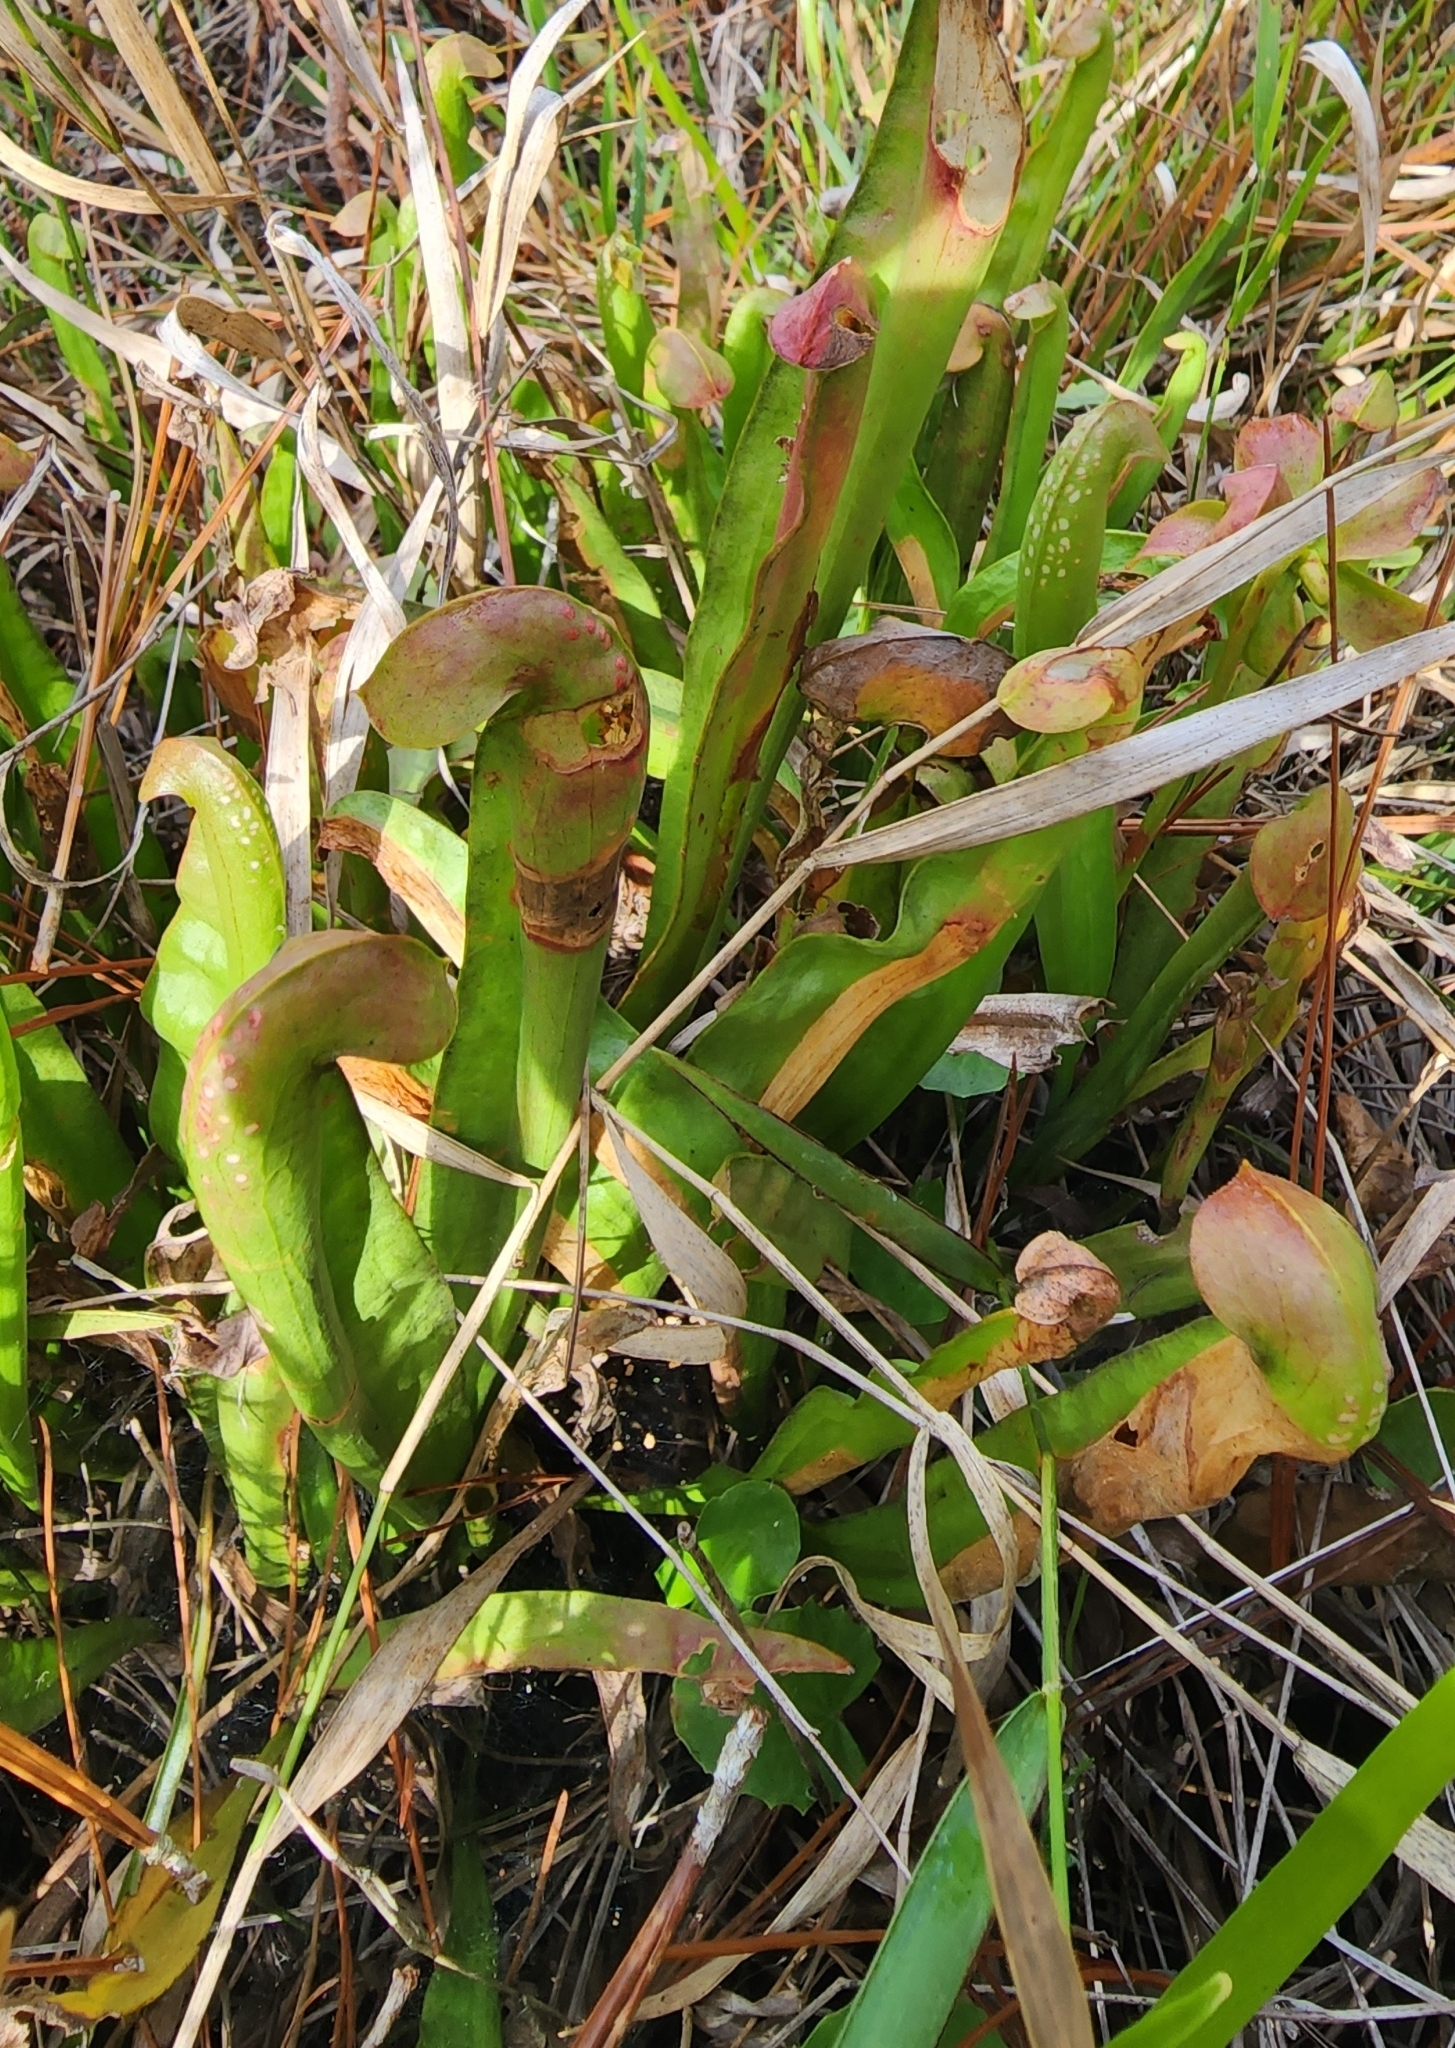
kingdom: Plantae
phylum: Tracheophyta
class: Magnoliopsida
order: Ericales
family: Sarraceniaceae
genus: Sarracenia
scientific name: Sarracenia minor
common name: Rainhat-trumpet
